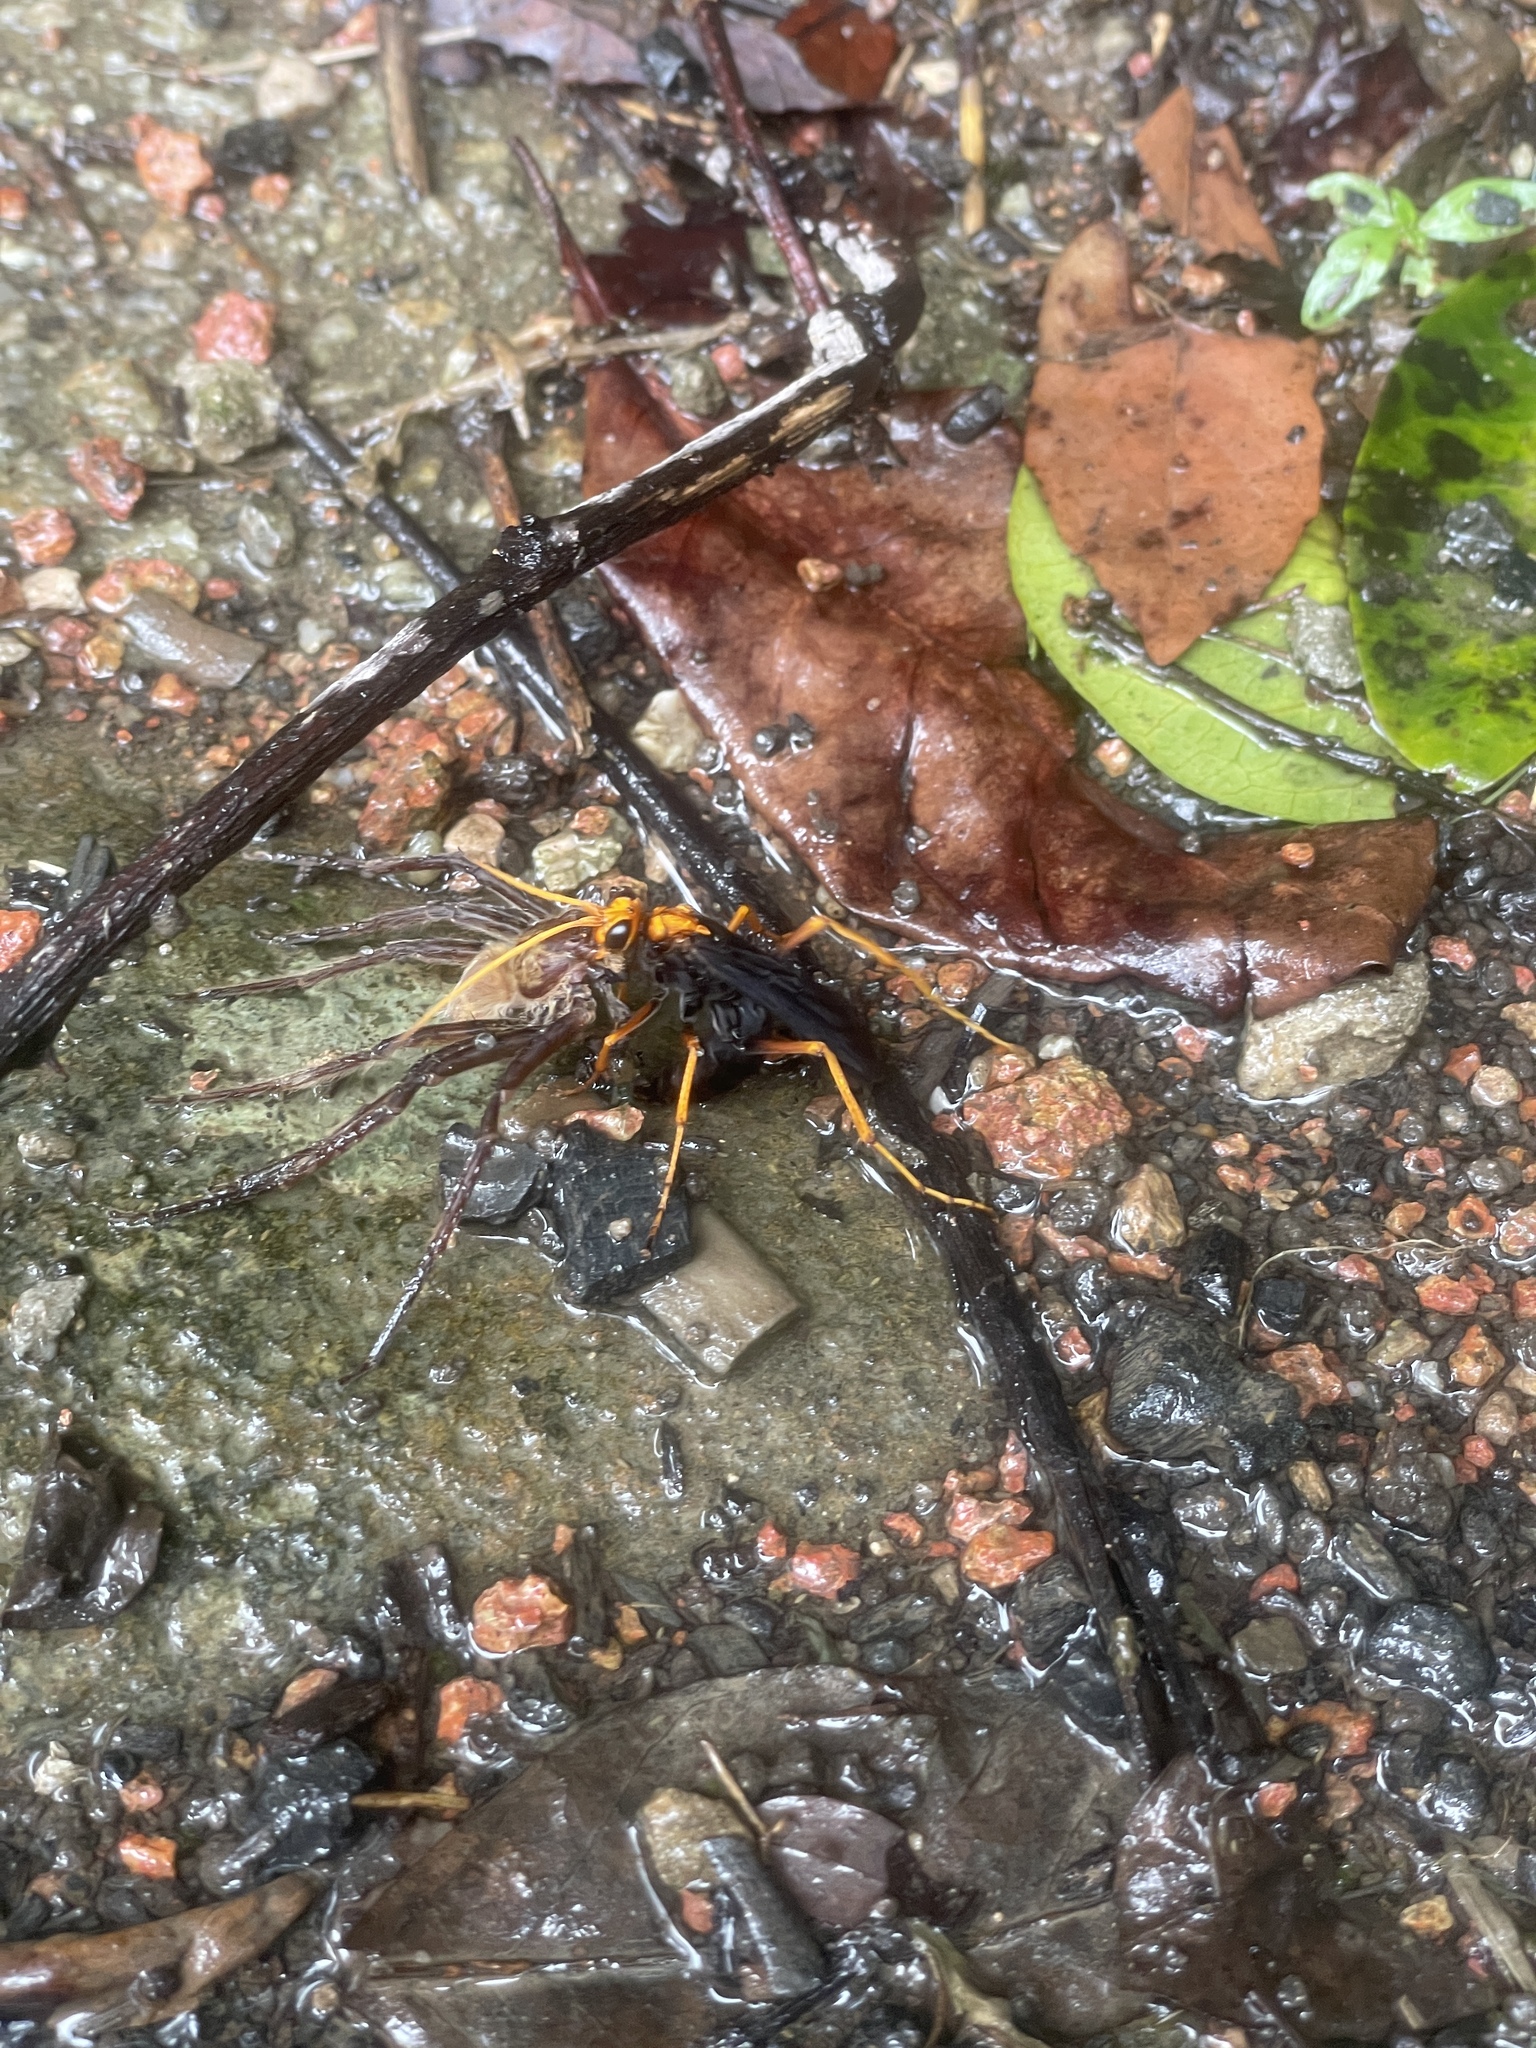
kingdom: Animalia
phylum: Arthropoda
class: Insecta
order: Hymenoptera
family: Pompilidae
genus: Cyphononyx
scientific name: Cyphononyx bipartitus
